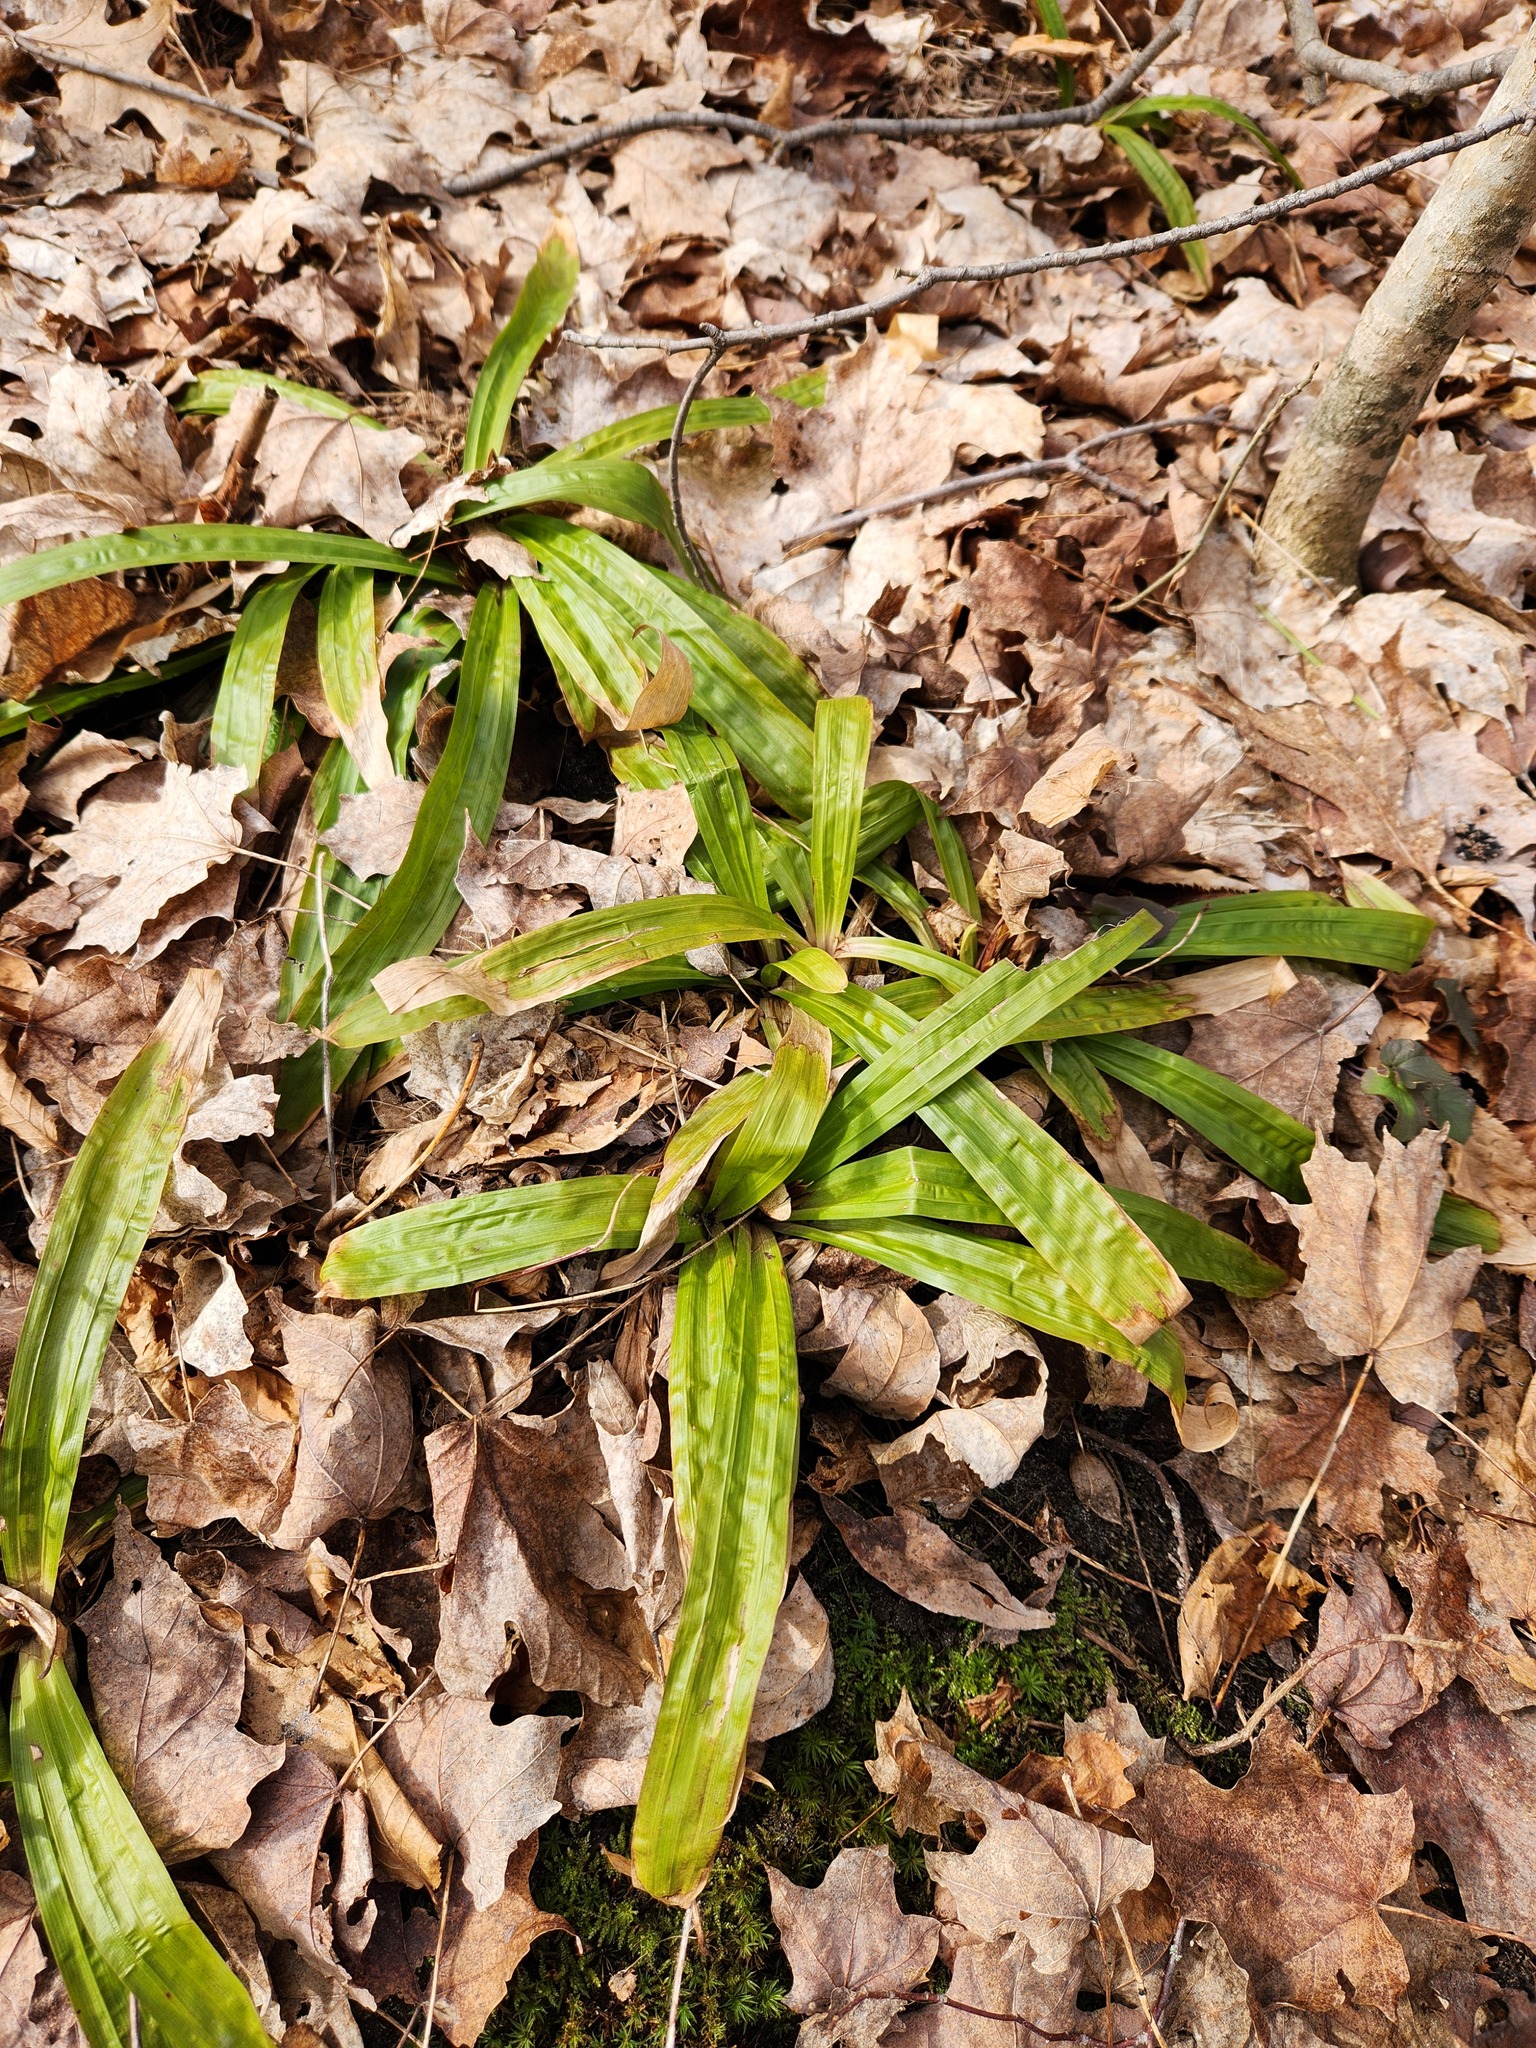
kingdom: Plantae
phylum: Tracheophyta
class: Liliopsida
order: Poales
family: Cyperaceae
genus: Carex
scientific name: Carex plantaginea
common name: Plantain-leaved sedge
